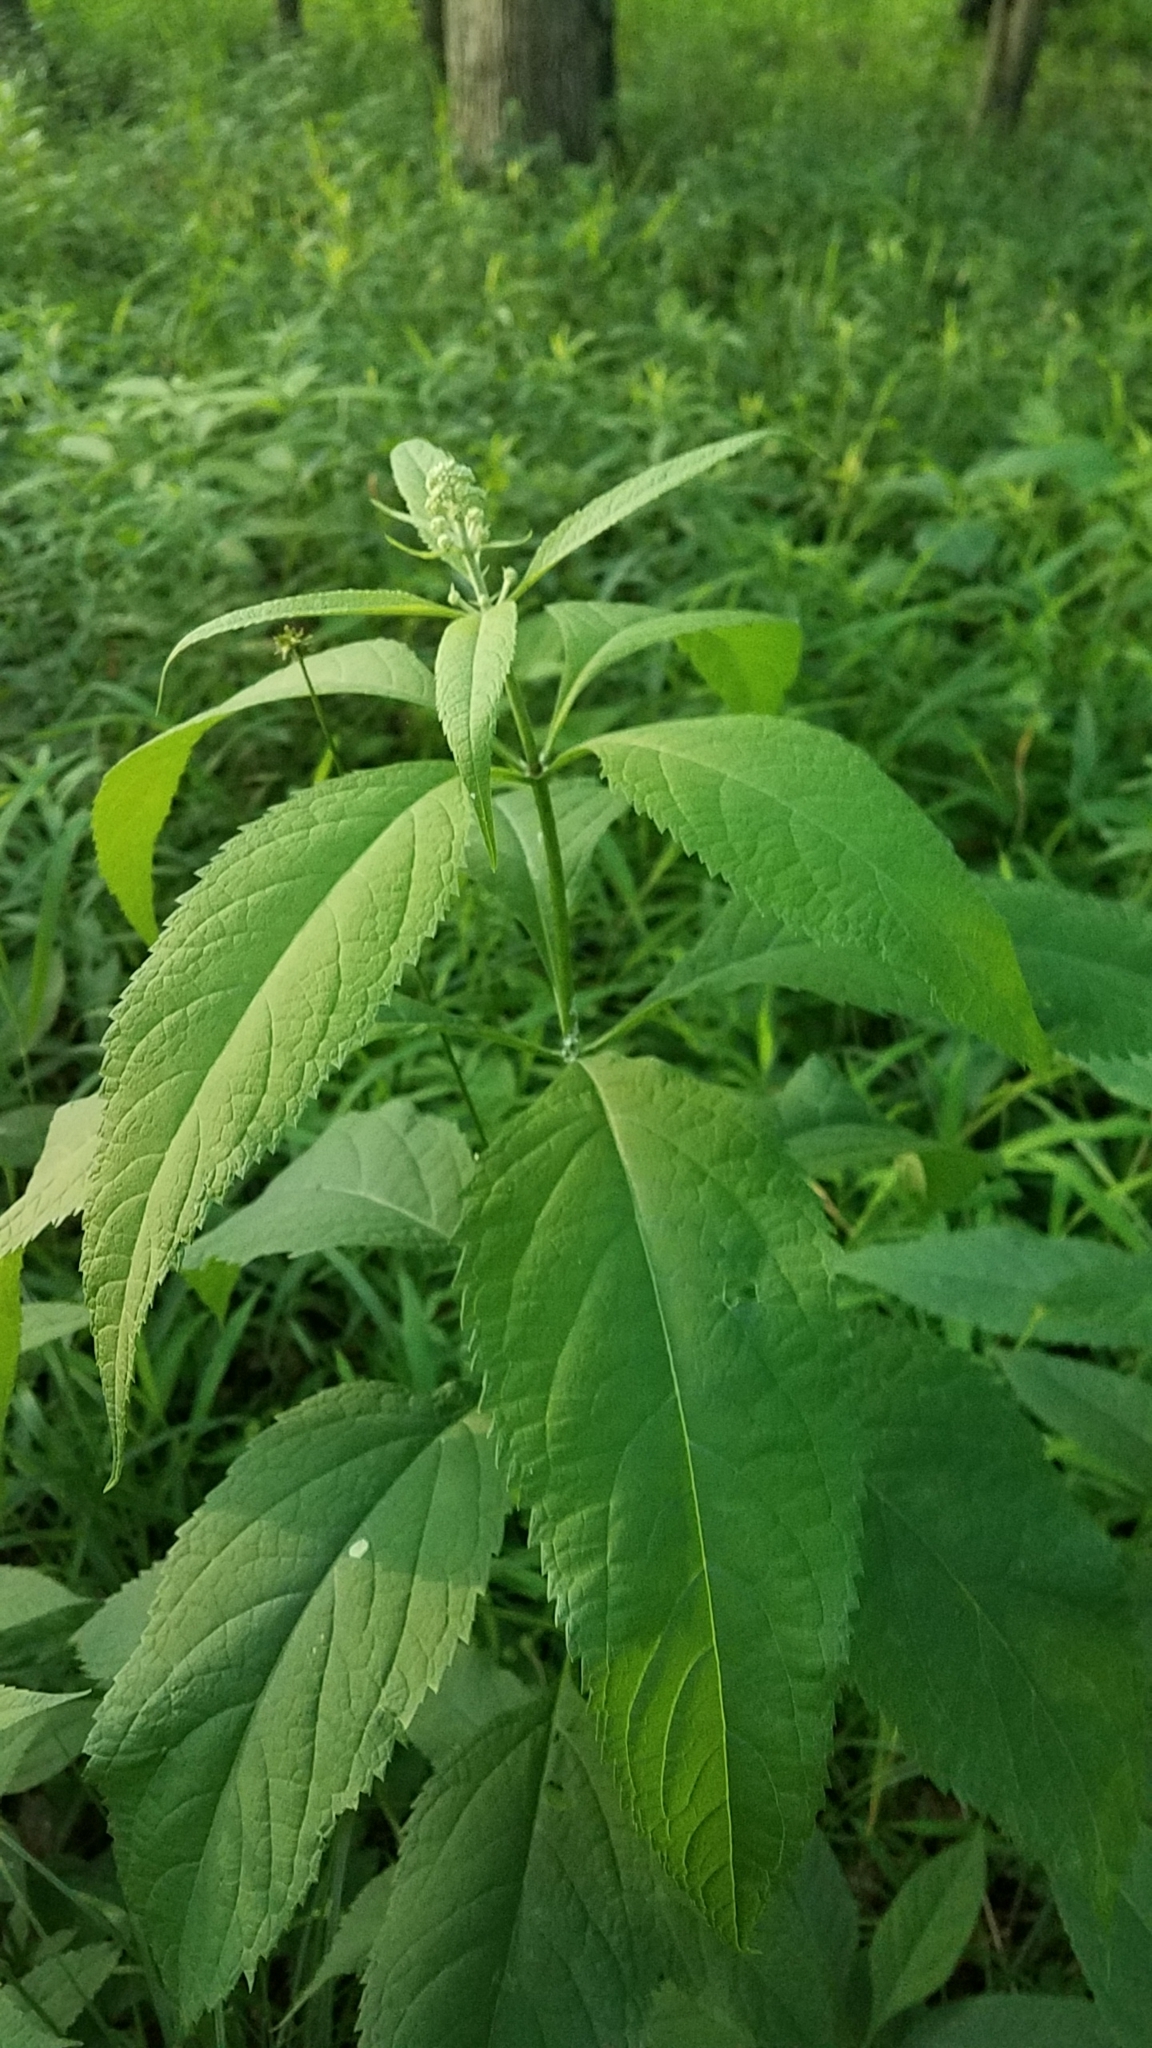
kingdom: Plantae
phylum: Tracheophyta
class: Magnoliopsida
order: Asterales
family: Asteraceae
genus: Eutrochium
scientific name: Eutrochium purpureum
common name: Gravelroot
